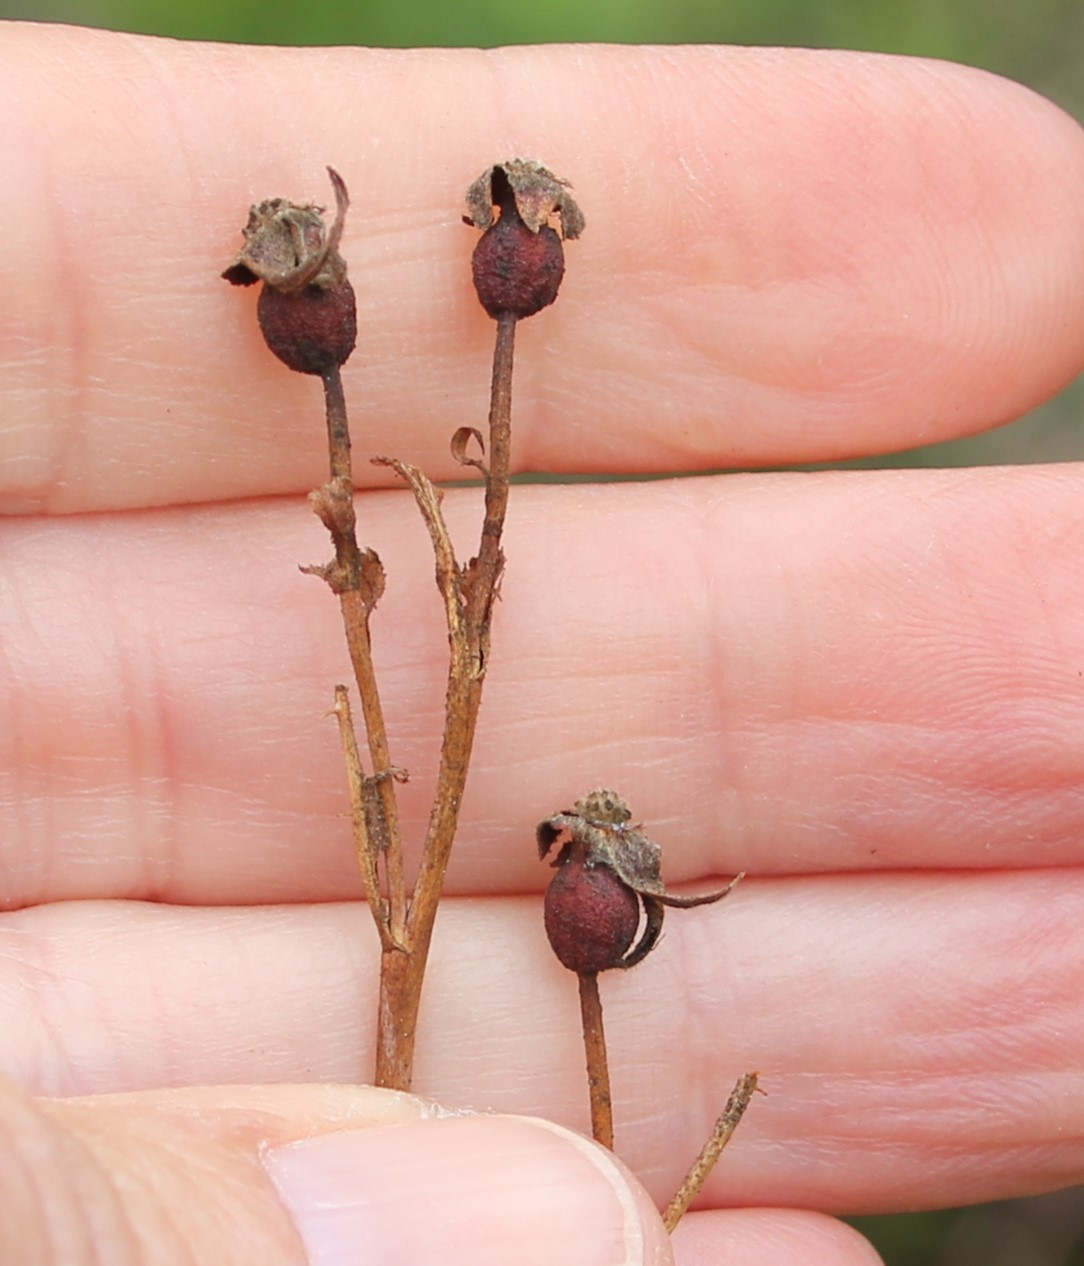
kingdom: Plantae
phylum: Tracheophyta
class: Magnoliopsida
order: Rosales
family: Rosaceae
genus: Rosa
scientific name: Rosa californica
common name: California rose
